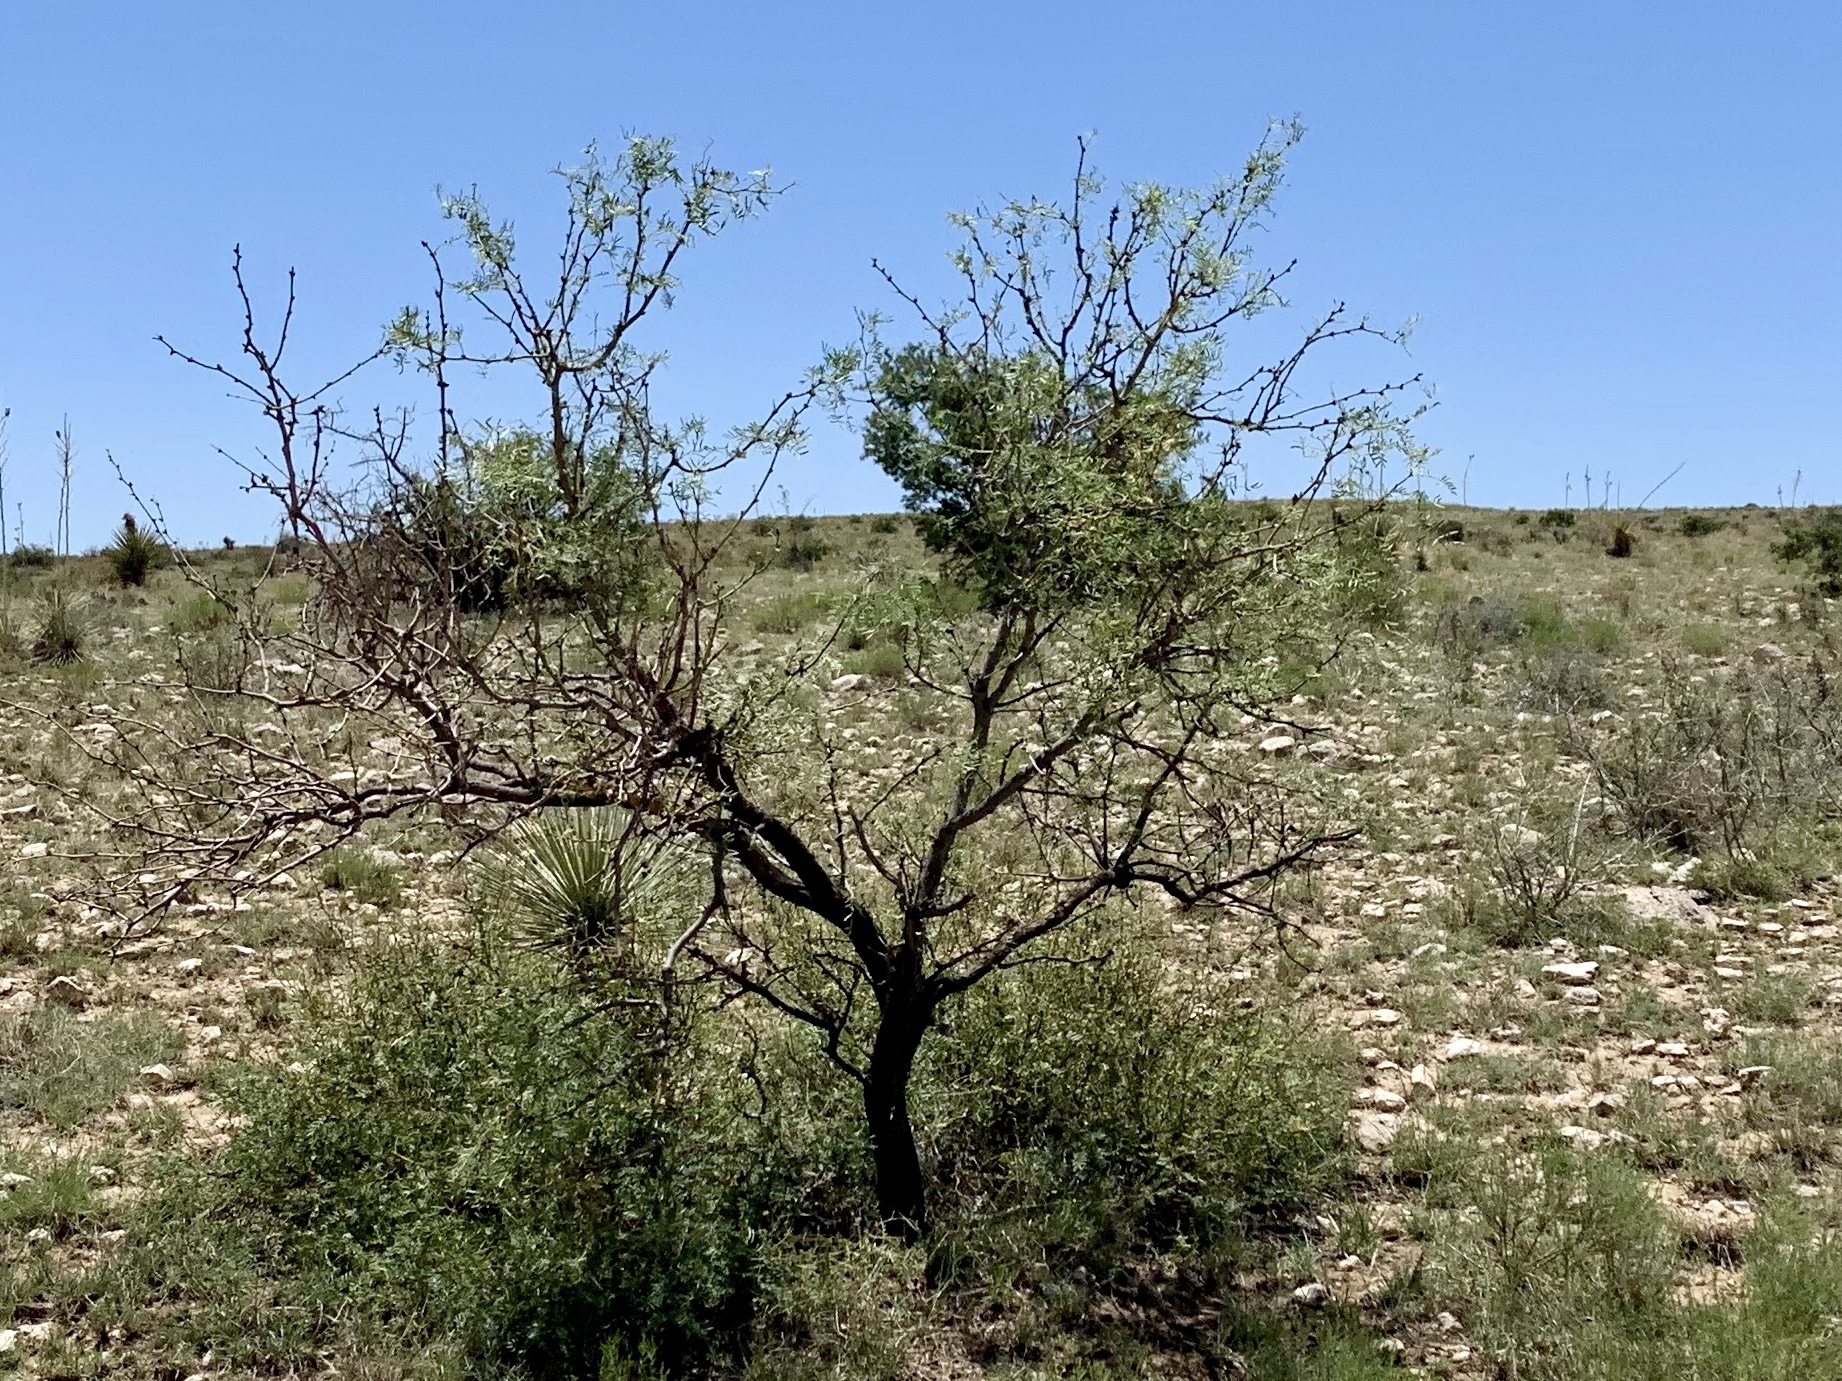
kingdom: Plantae
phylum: Tracheophyta
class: Magnoliopsida
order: Fabales
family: Fabaceae
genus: Prosopis
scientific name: Prosopis glandulosa
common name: Honey mesquite
